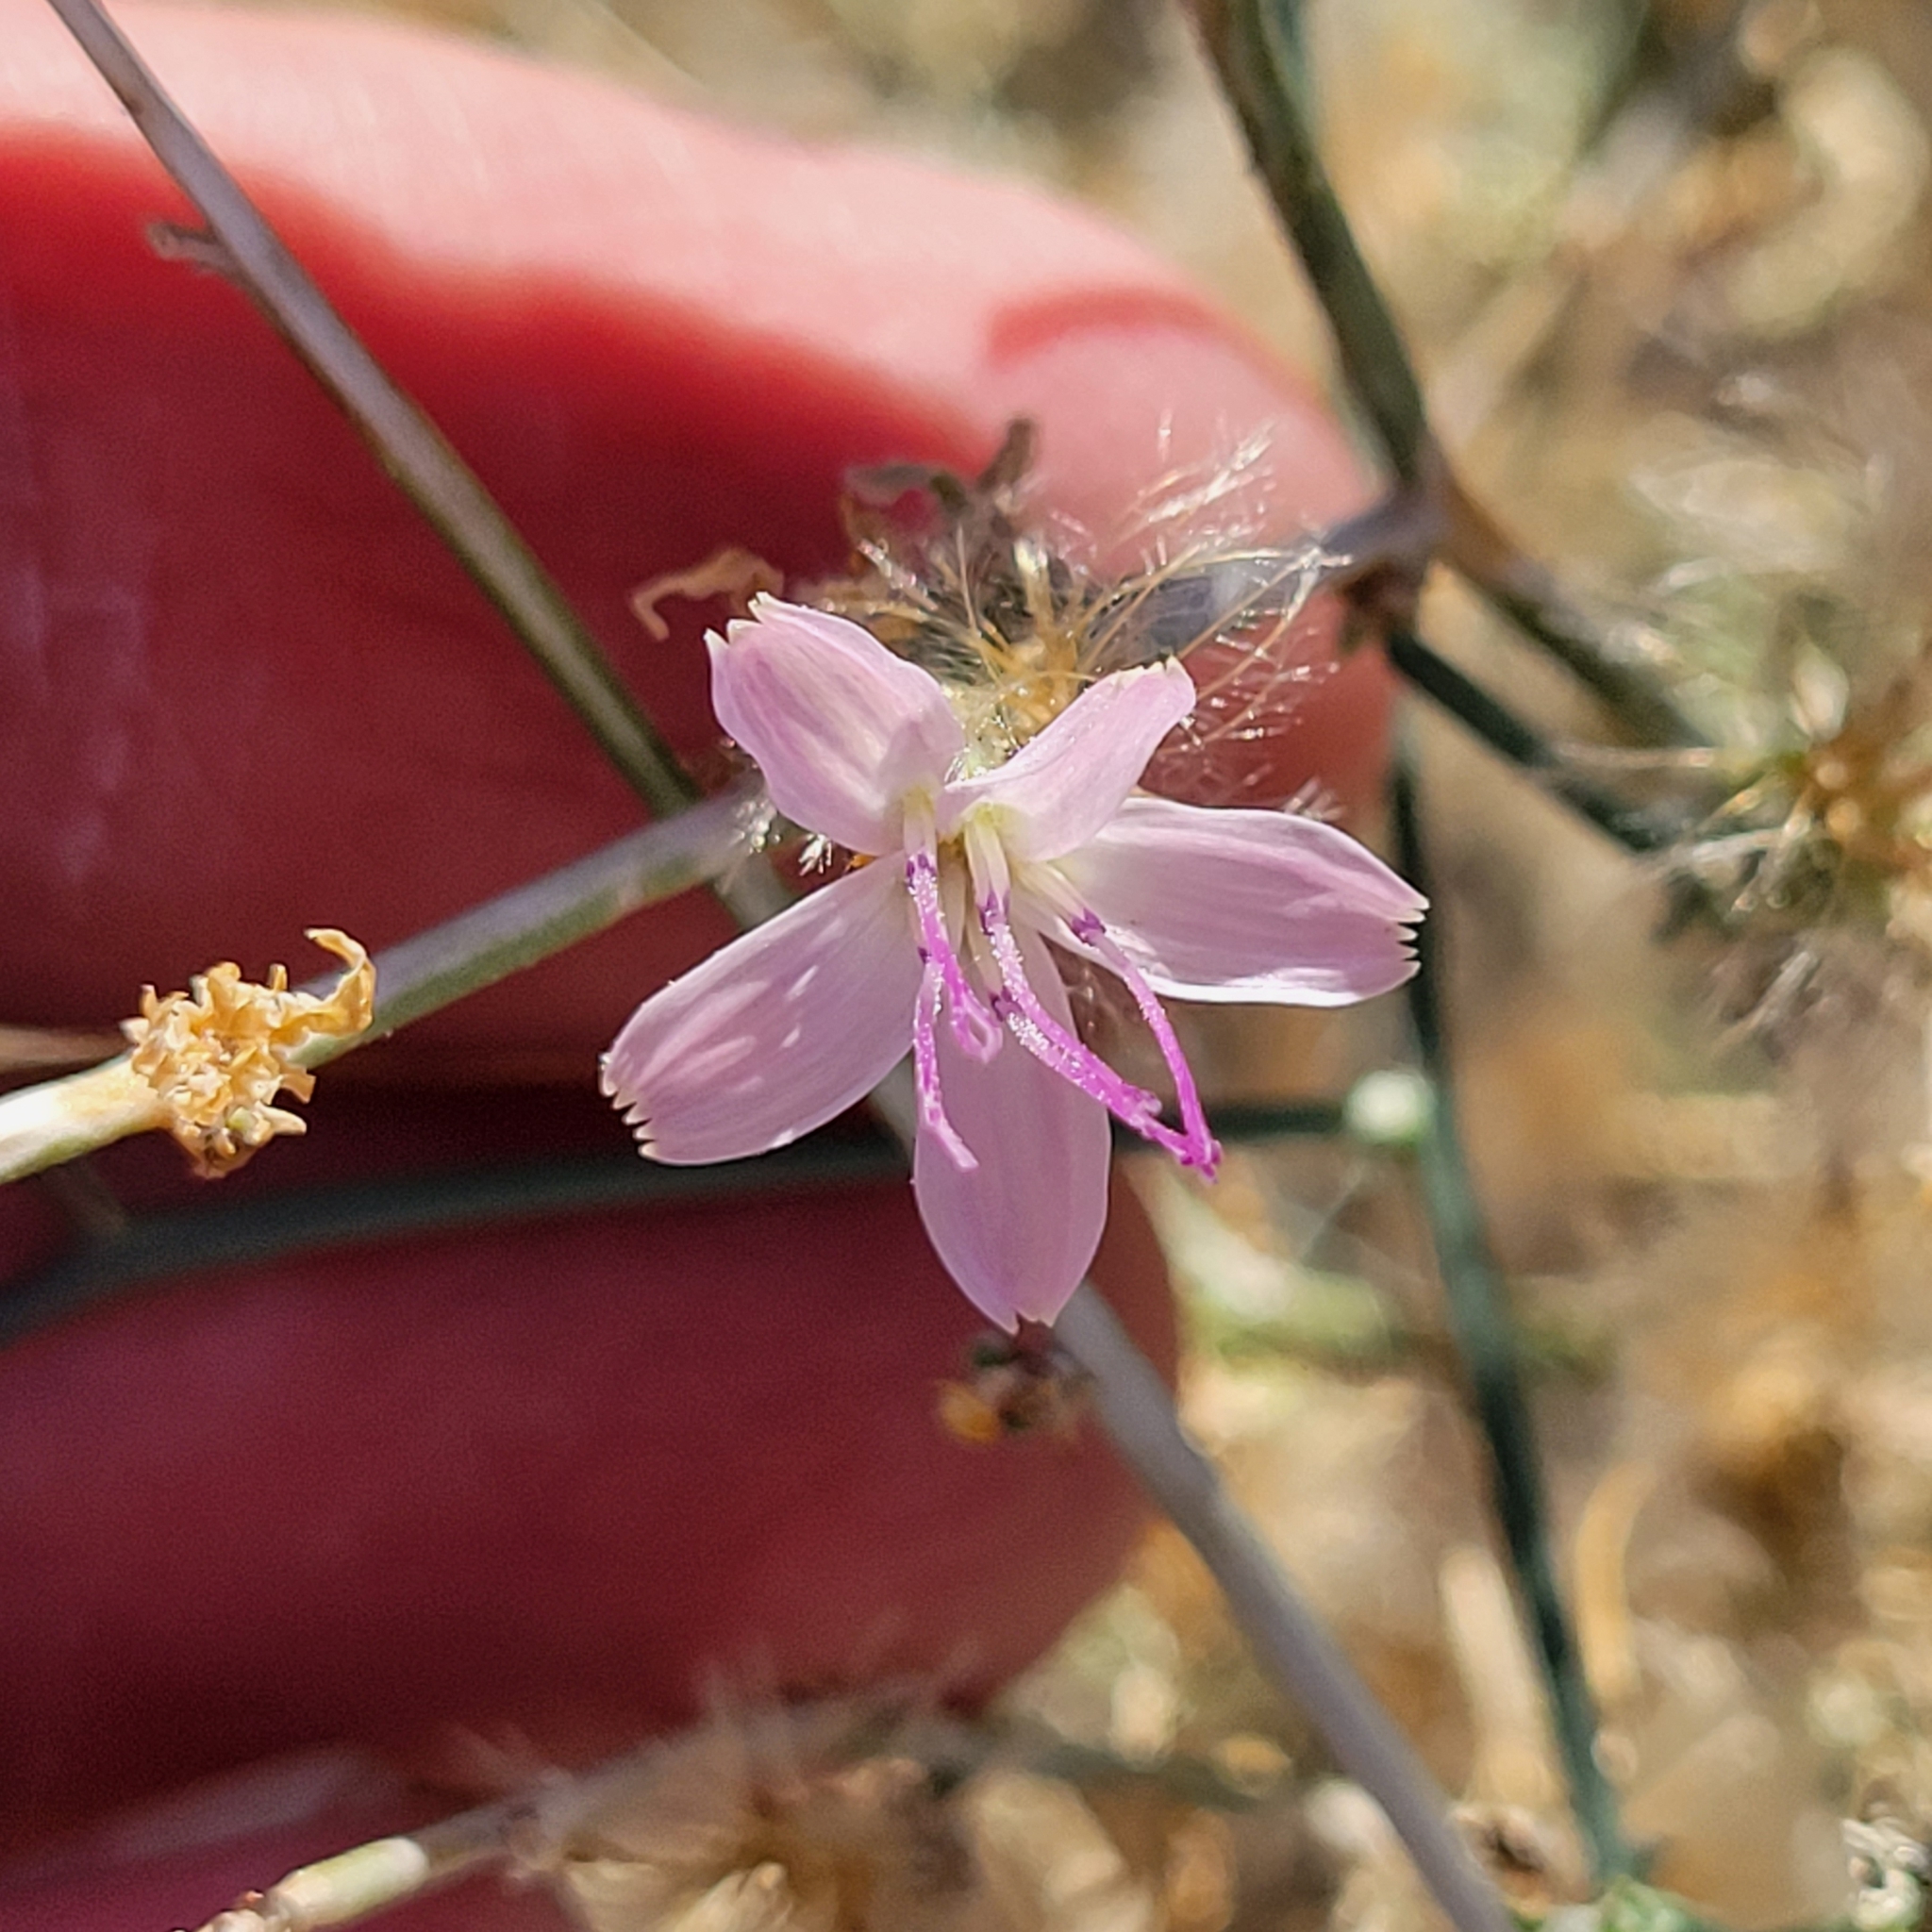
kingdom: Plantae
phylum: Tracheophyta
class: Magnoliopsida
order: Asterales
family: Asteraceae
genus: Stephanomeria
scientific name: Stephanomeria pauciflora
